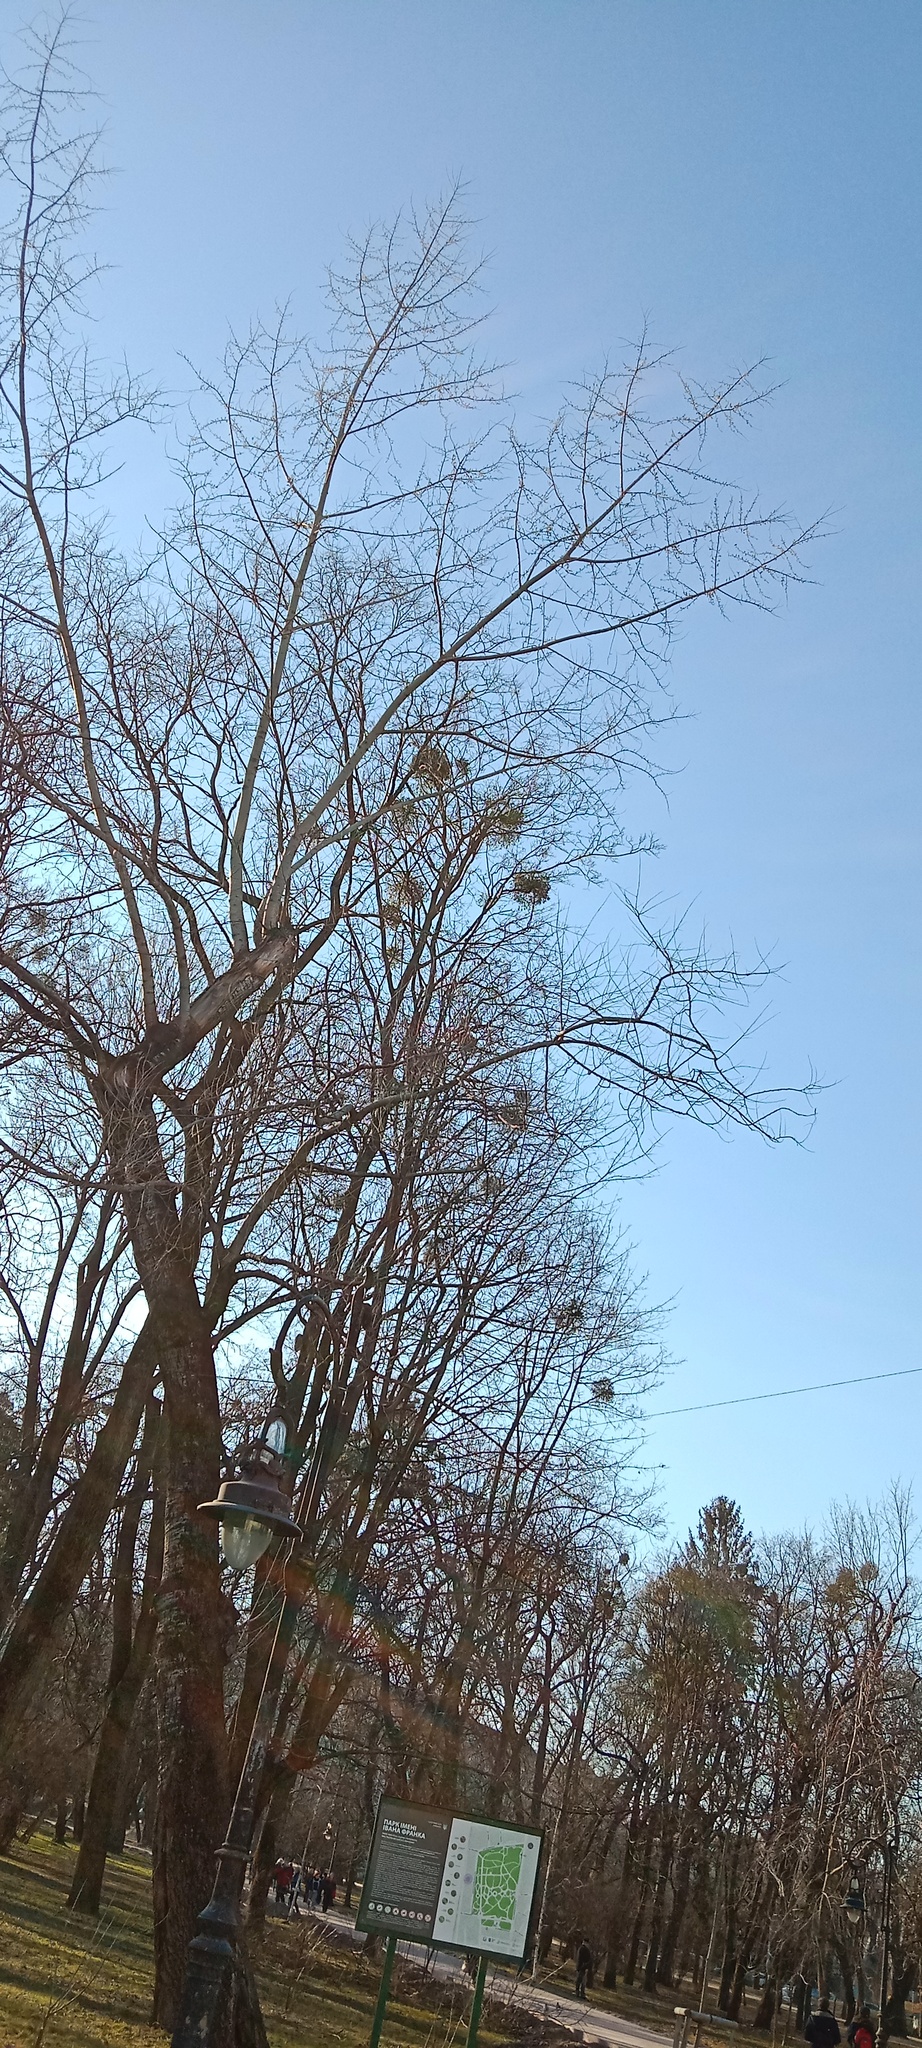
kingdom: Plantae
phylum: Tracheophyta
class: Magnoliopsida
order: Santalales
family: Viscaceae
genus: Viscum
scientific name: Viscum album
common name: Mistletoe
